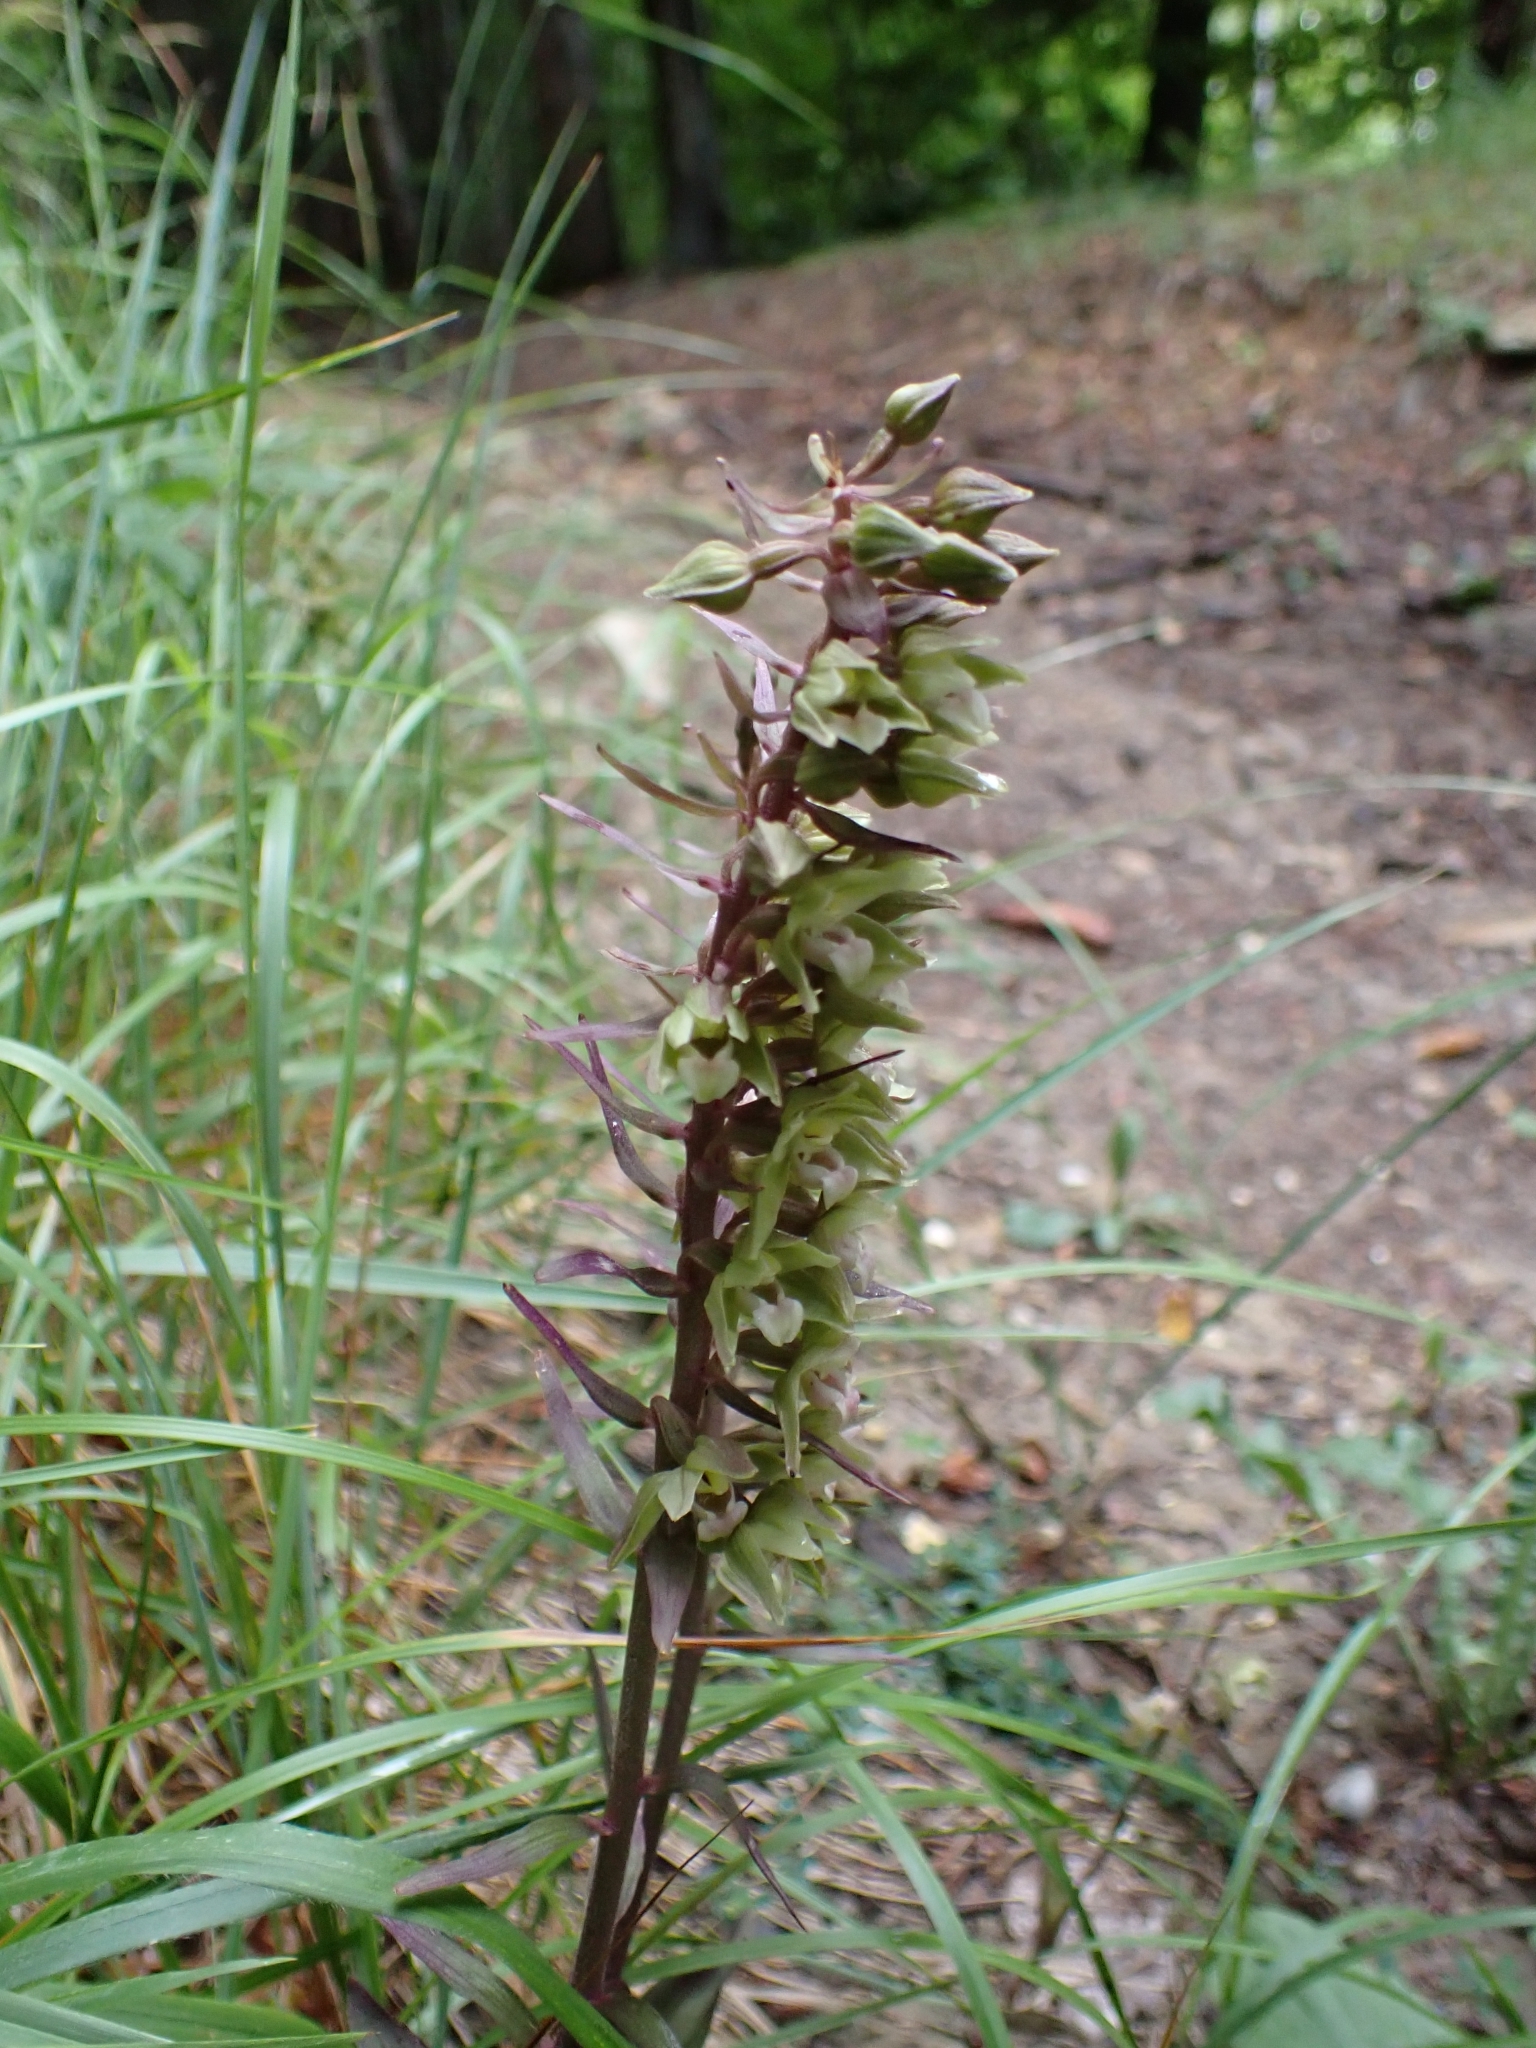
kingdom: Plantae
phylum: Tracheophyta
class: Liliopsida
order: Asparagales
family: Orchidaceae
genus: Epipactis
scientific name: Epipactis purpurata
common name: Violet helleborine
